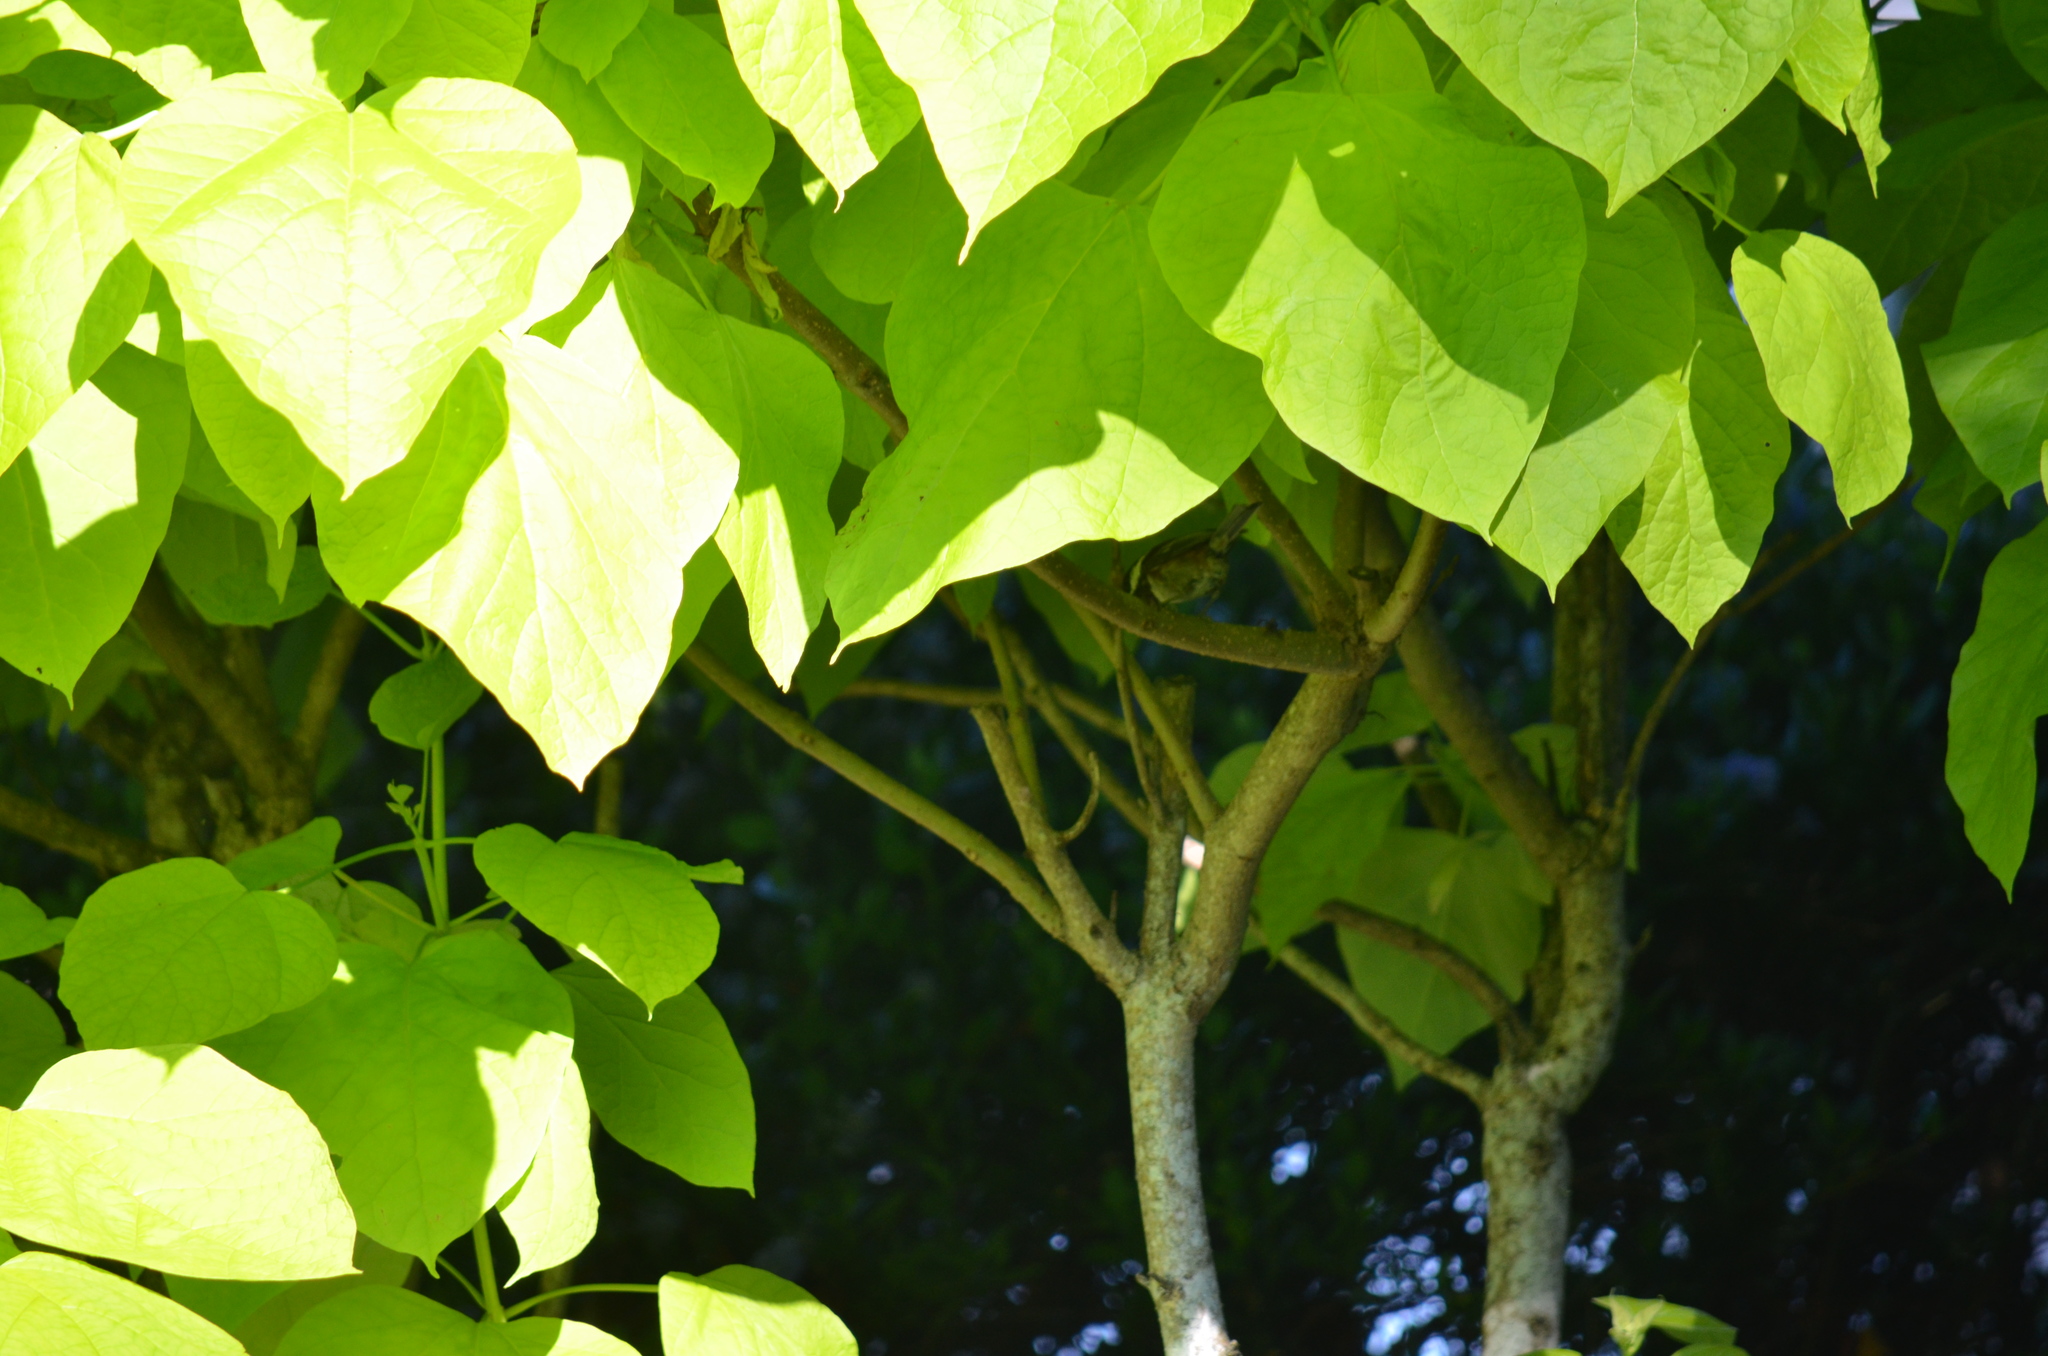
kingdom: Animalia
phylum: Chordata
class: Aves
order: Passeriformes
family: Paridae
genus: Poecile
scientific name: Poecile rufescens
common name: Chestnut-backed chickadee
